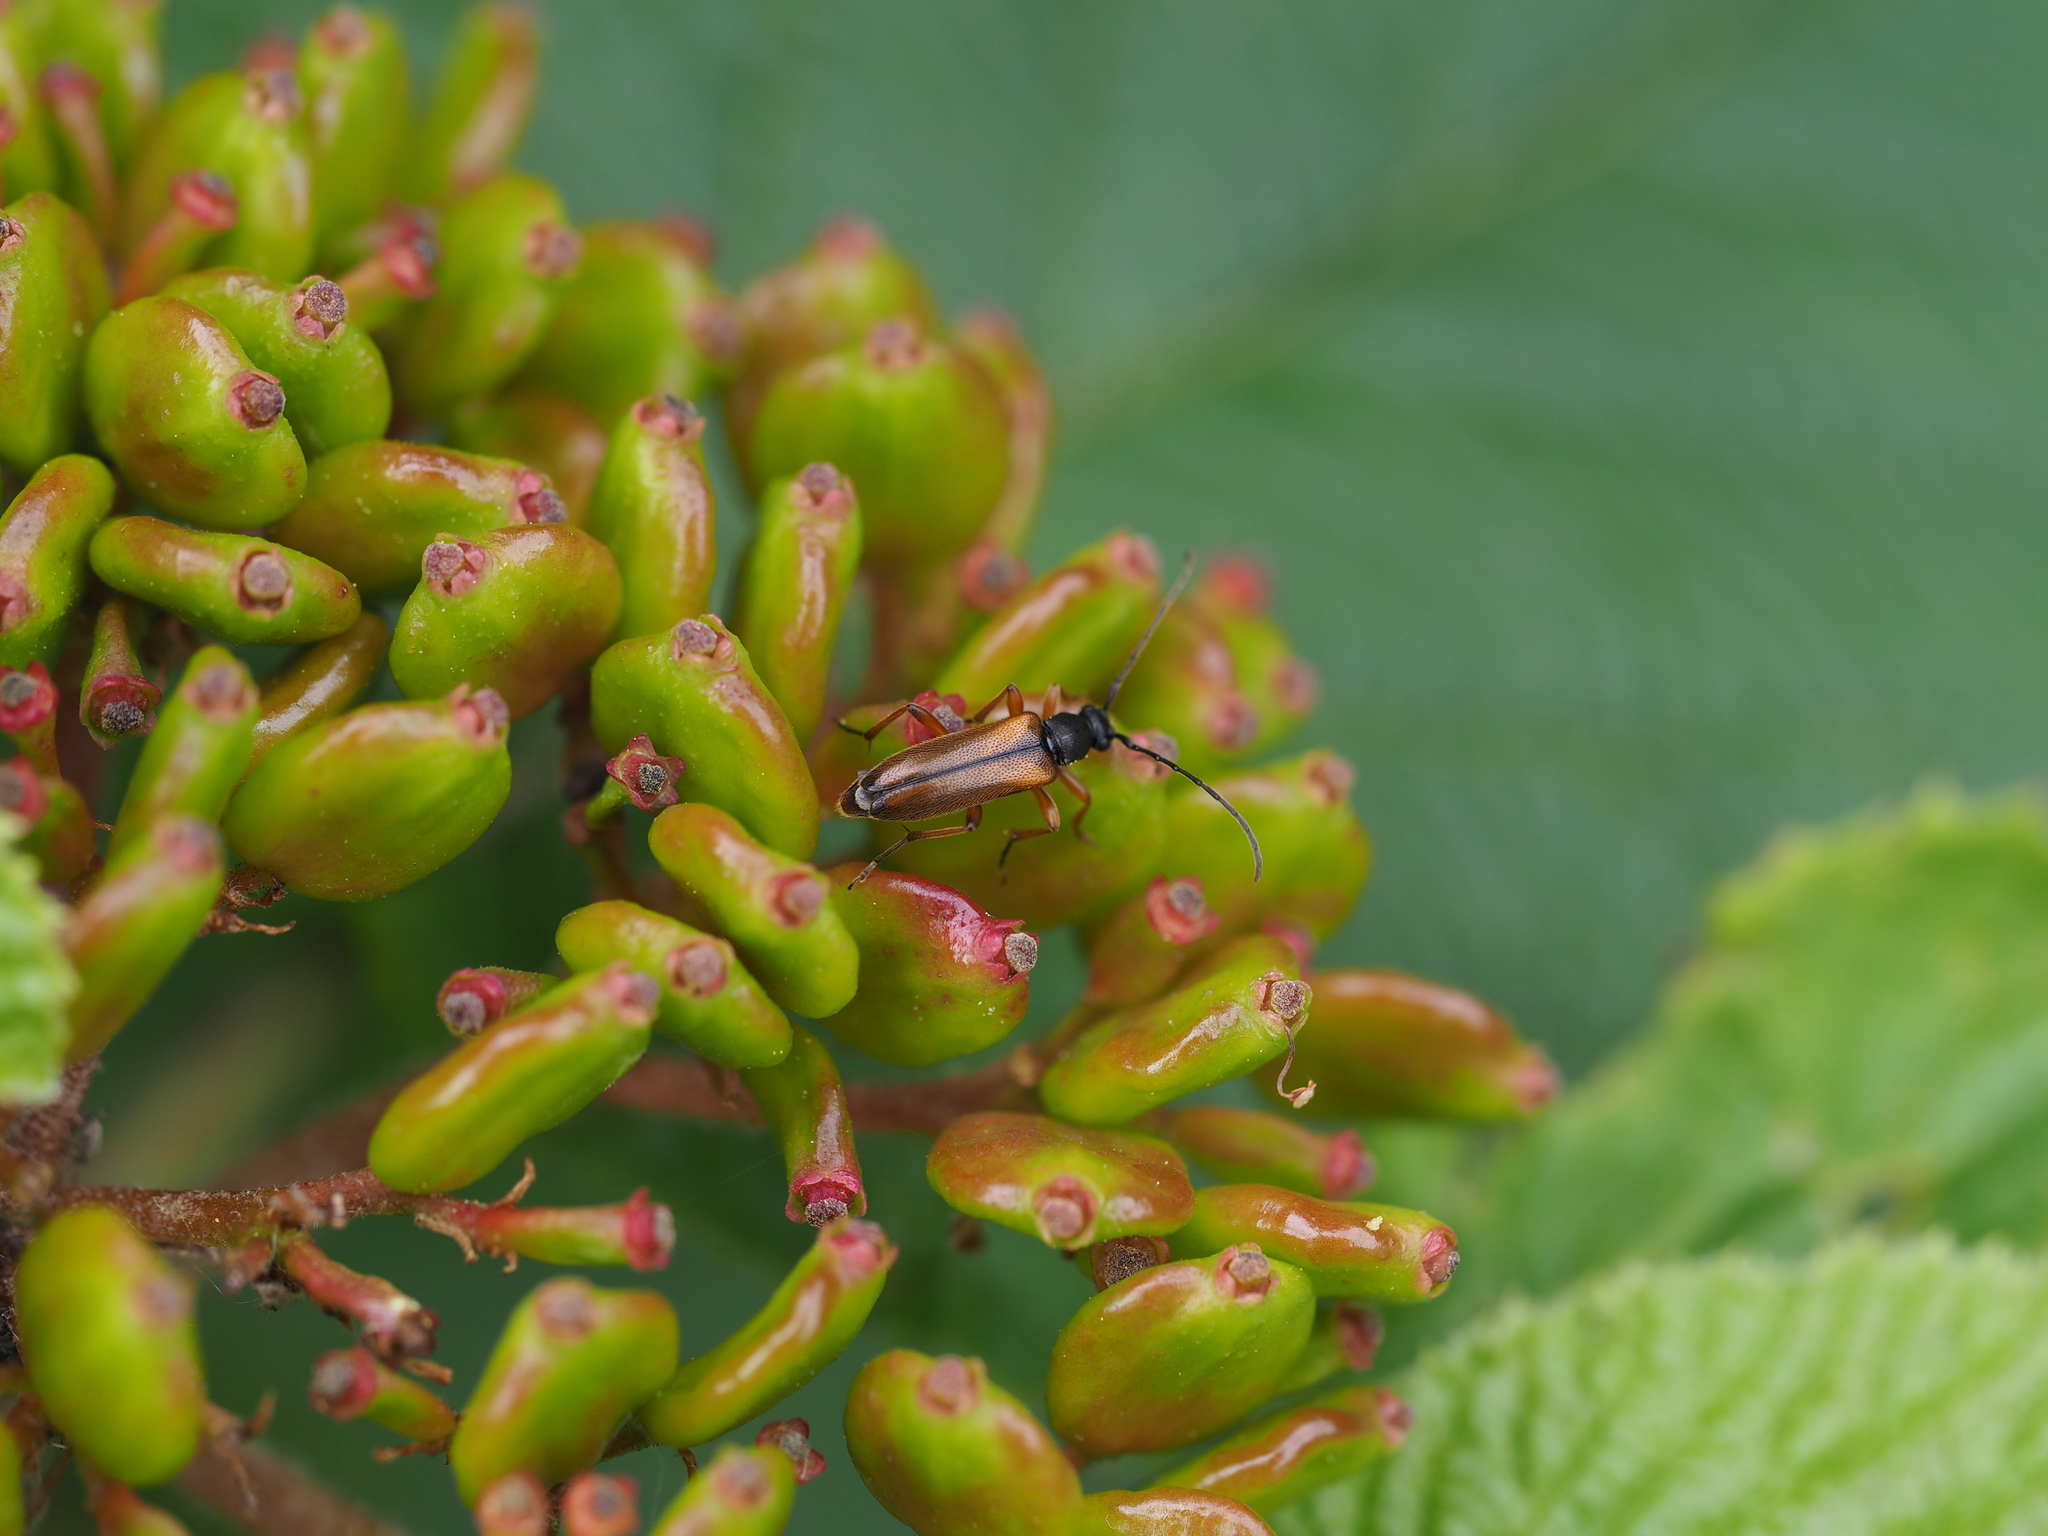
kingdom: Animalia
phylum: Arthropoda
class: Insecta
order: Coleoptera
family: Cerambycidae
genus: Alosterna
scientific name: Alosterna tabacicolor
